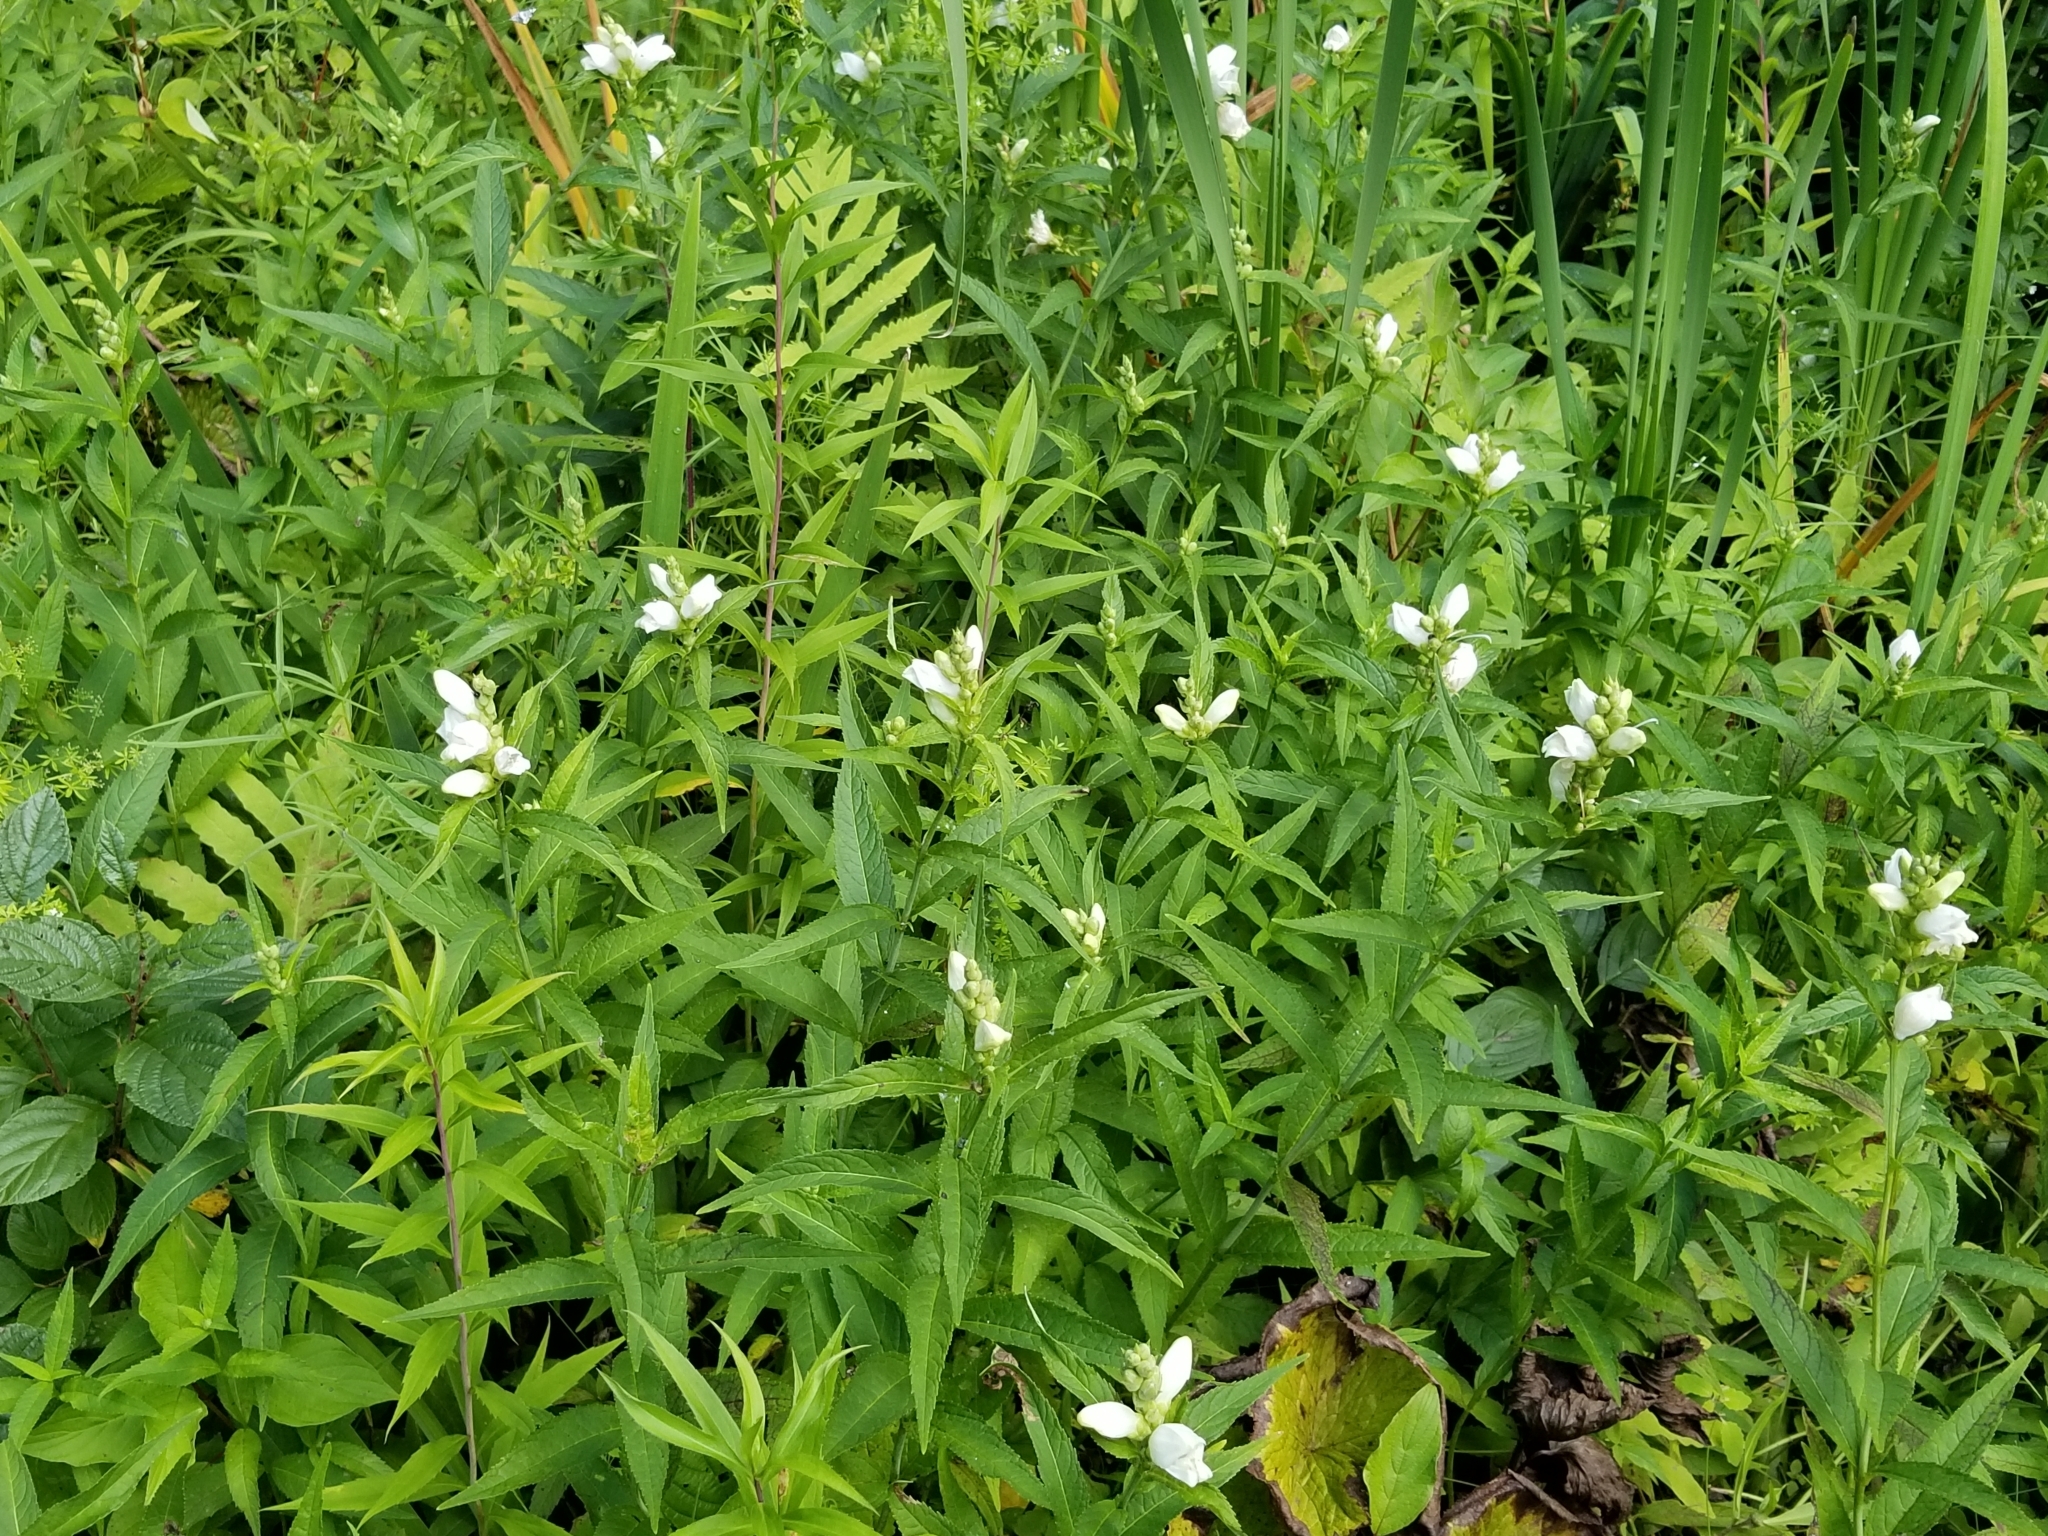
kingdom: Plantae
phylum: Tracheophyta
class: Magnoliopsida
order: Lamiales
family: Plantaginaceae
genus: Chelone
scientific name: Chelone glabra
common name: Snakehead
